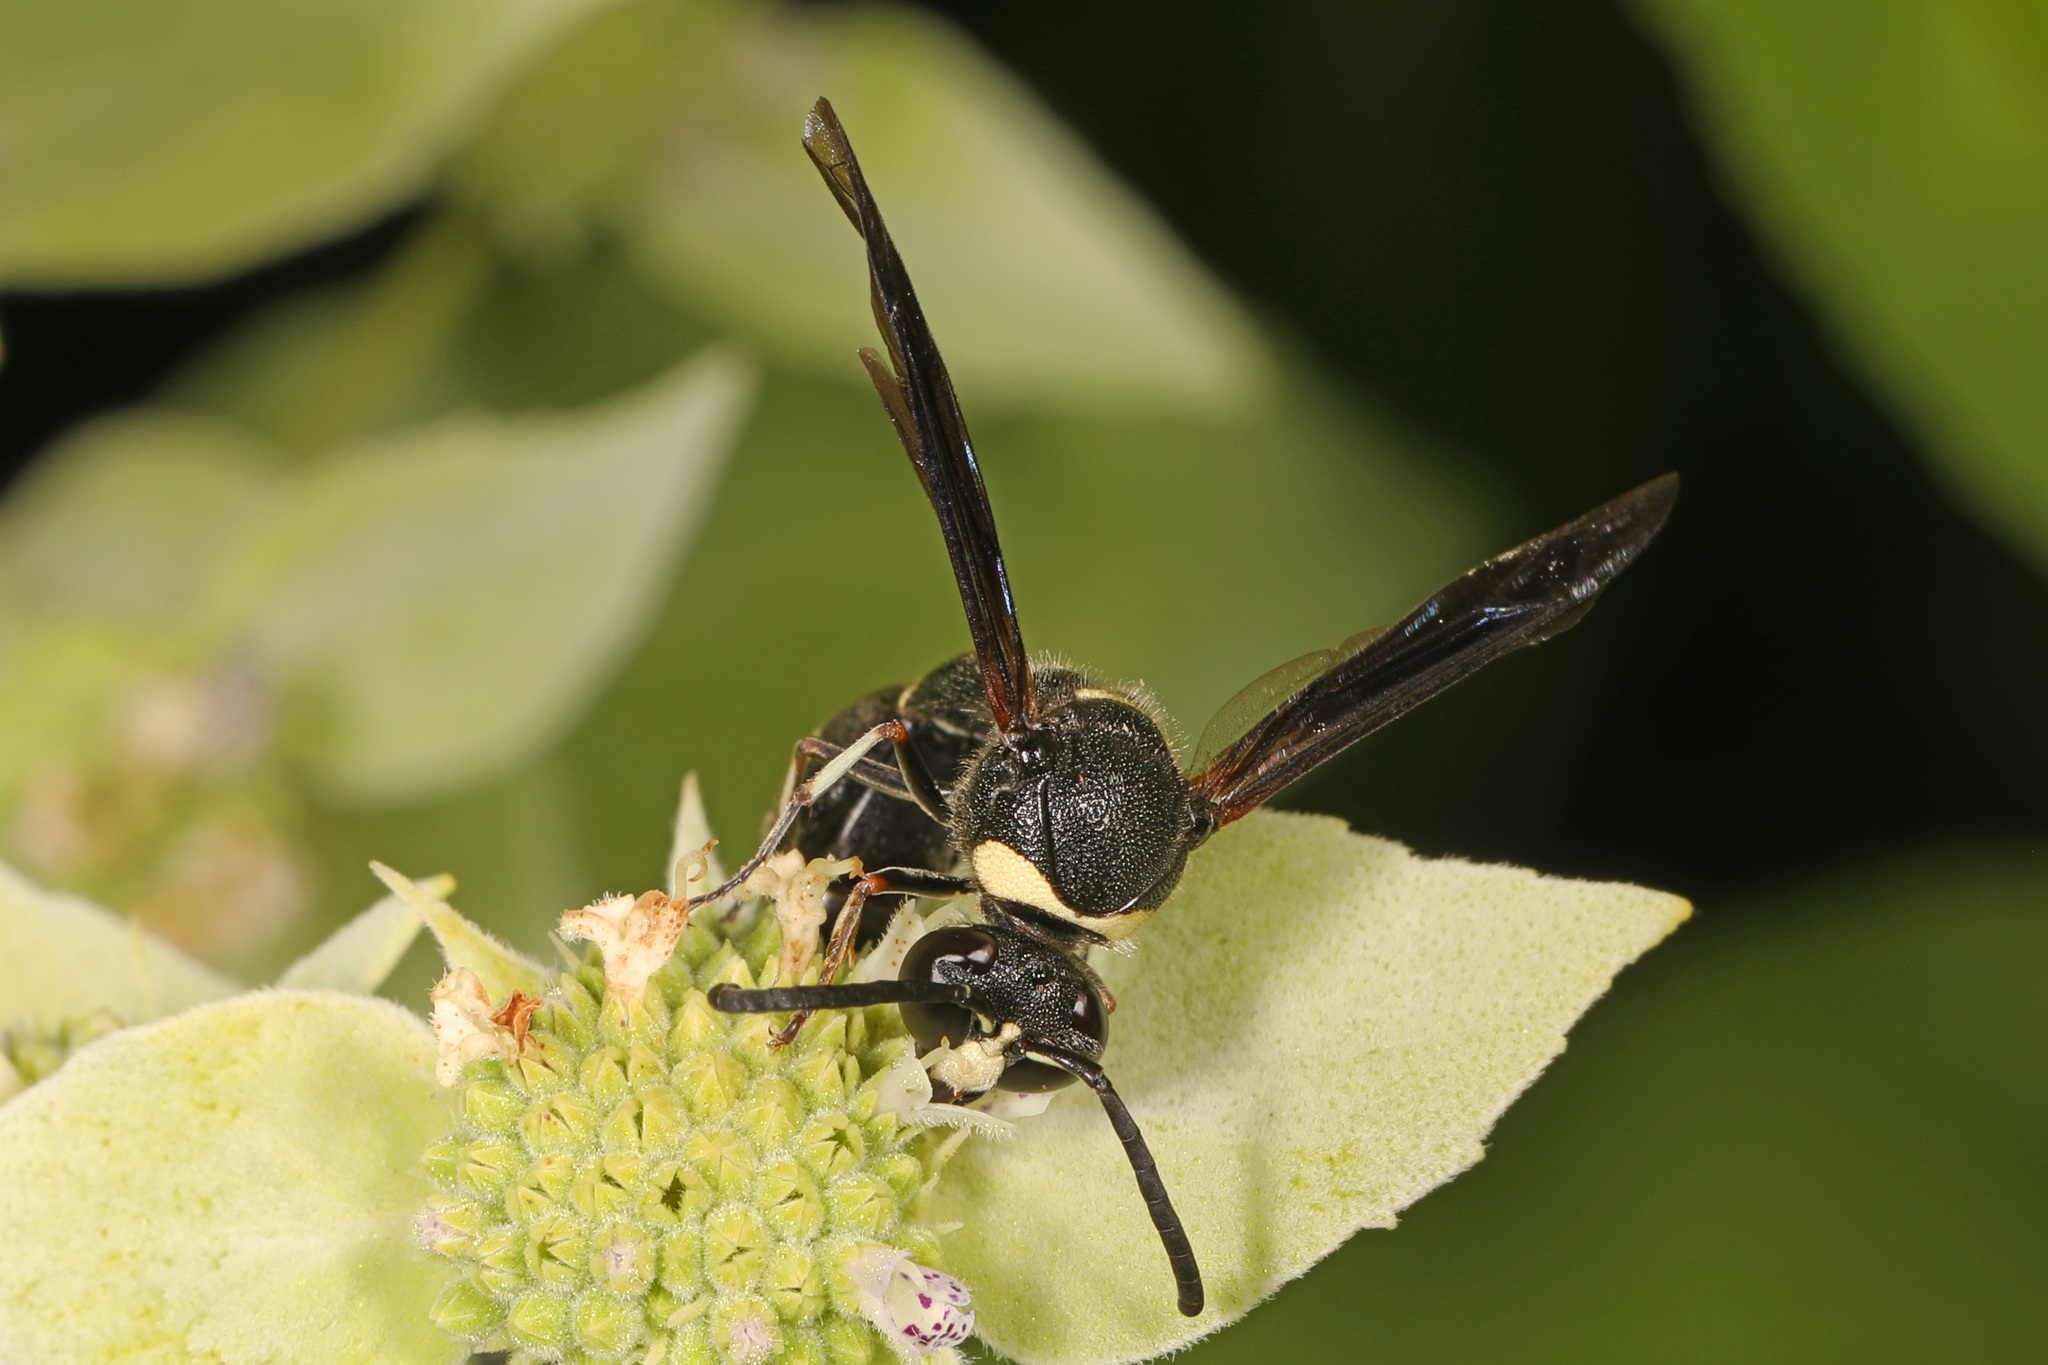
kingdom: Animalia
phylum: Arthropoda
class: Insecta
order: Hymenoptera
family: Vespidae
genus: Eumenes
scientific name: Eumenes fraternus
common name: Fraternal potter wasp
